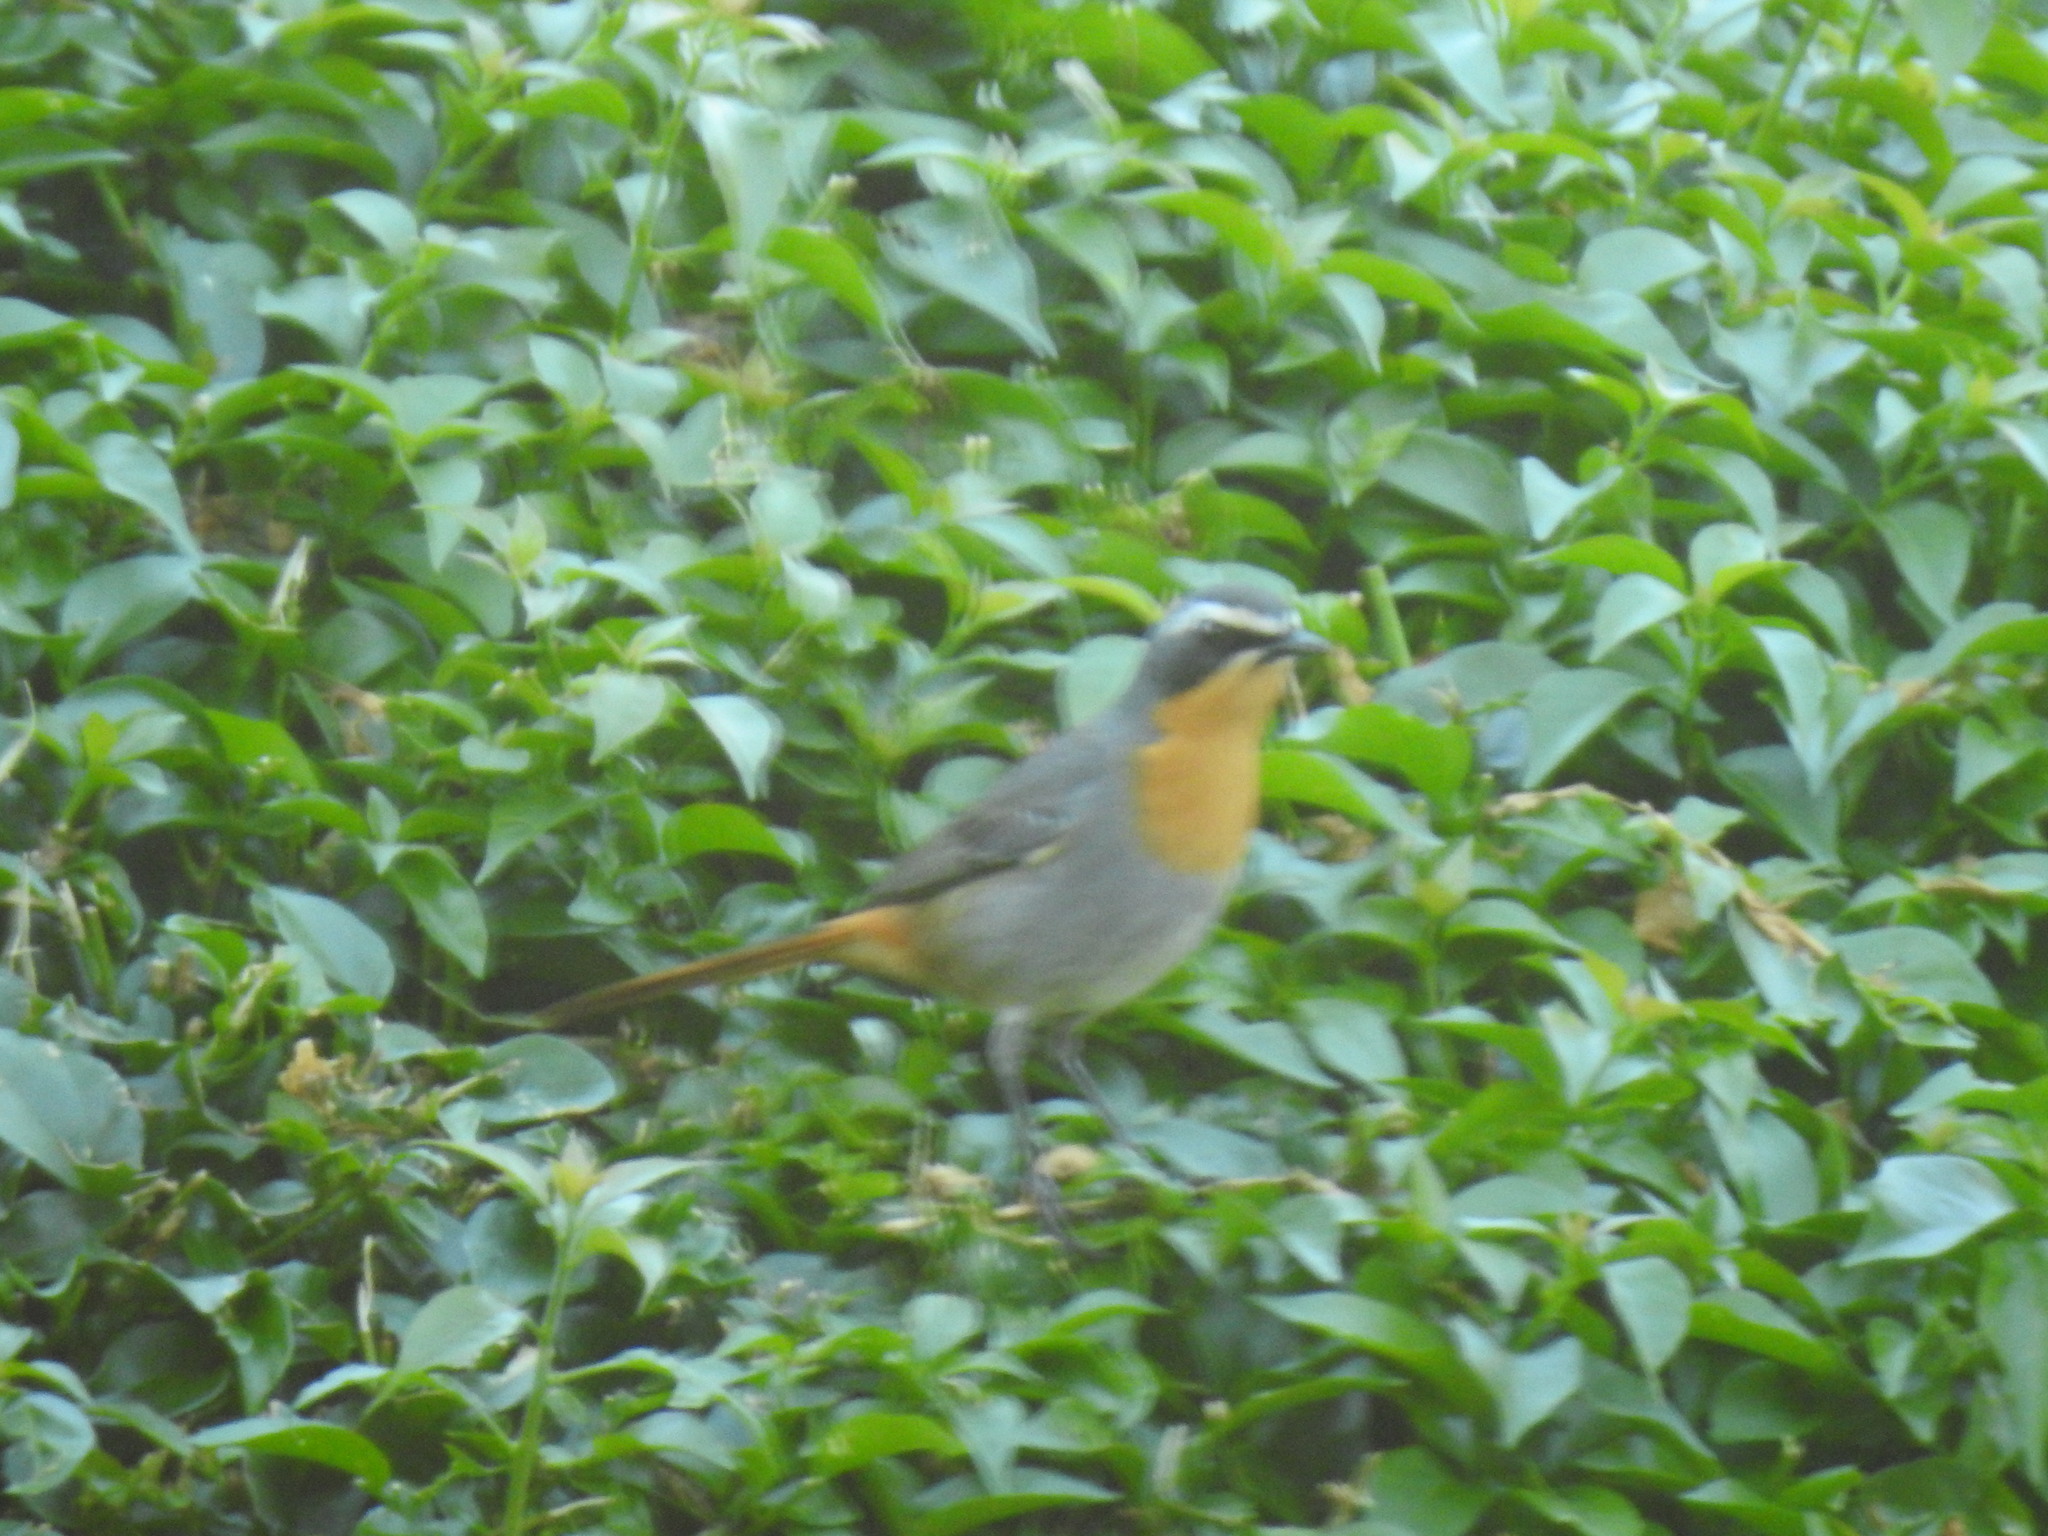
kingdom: Animalia
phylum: Chordata
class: Aves
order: Passeriformes
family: Muscicapidae
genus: Cossypha
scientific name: Cossypha caffra
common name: Cape robin-chat
